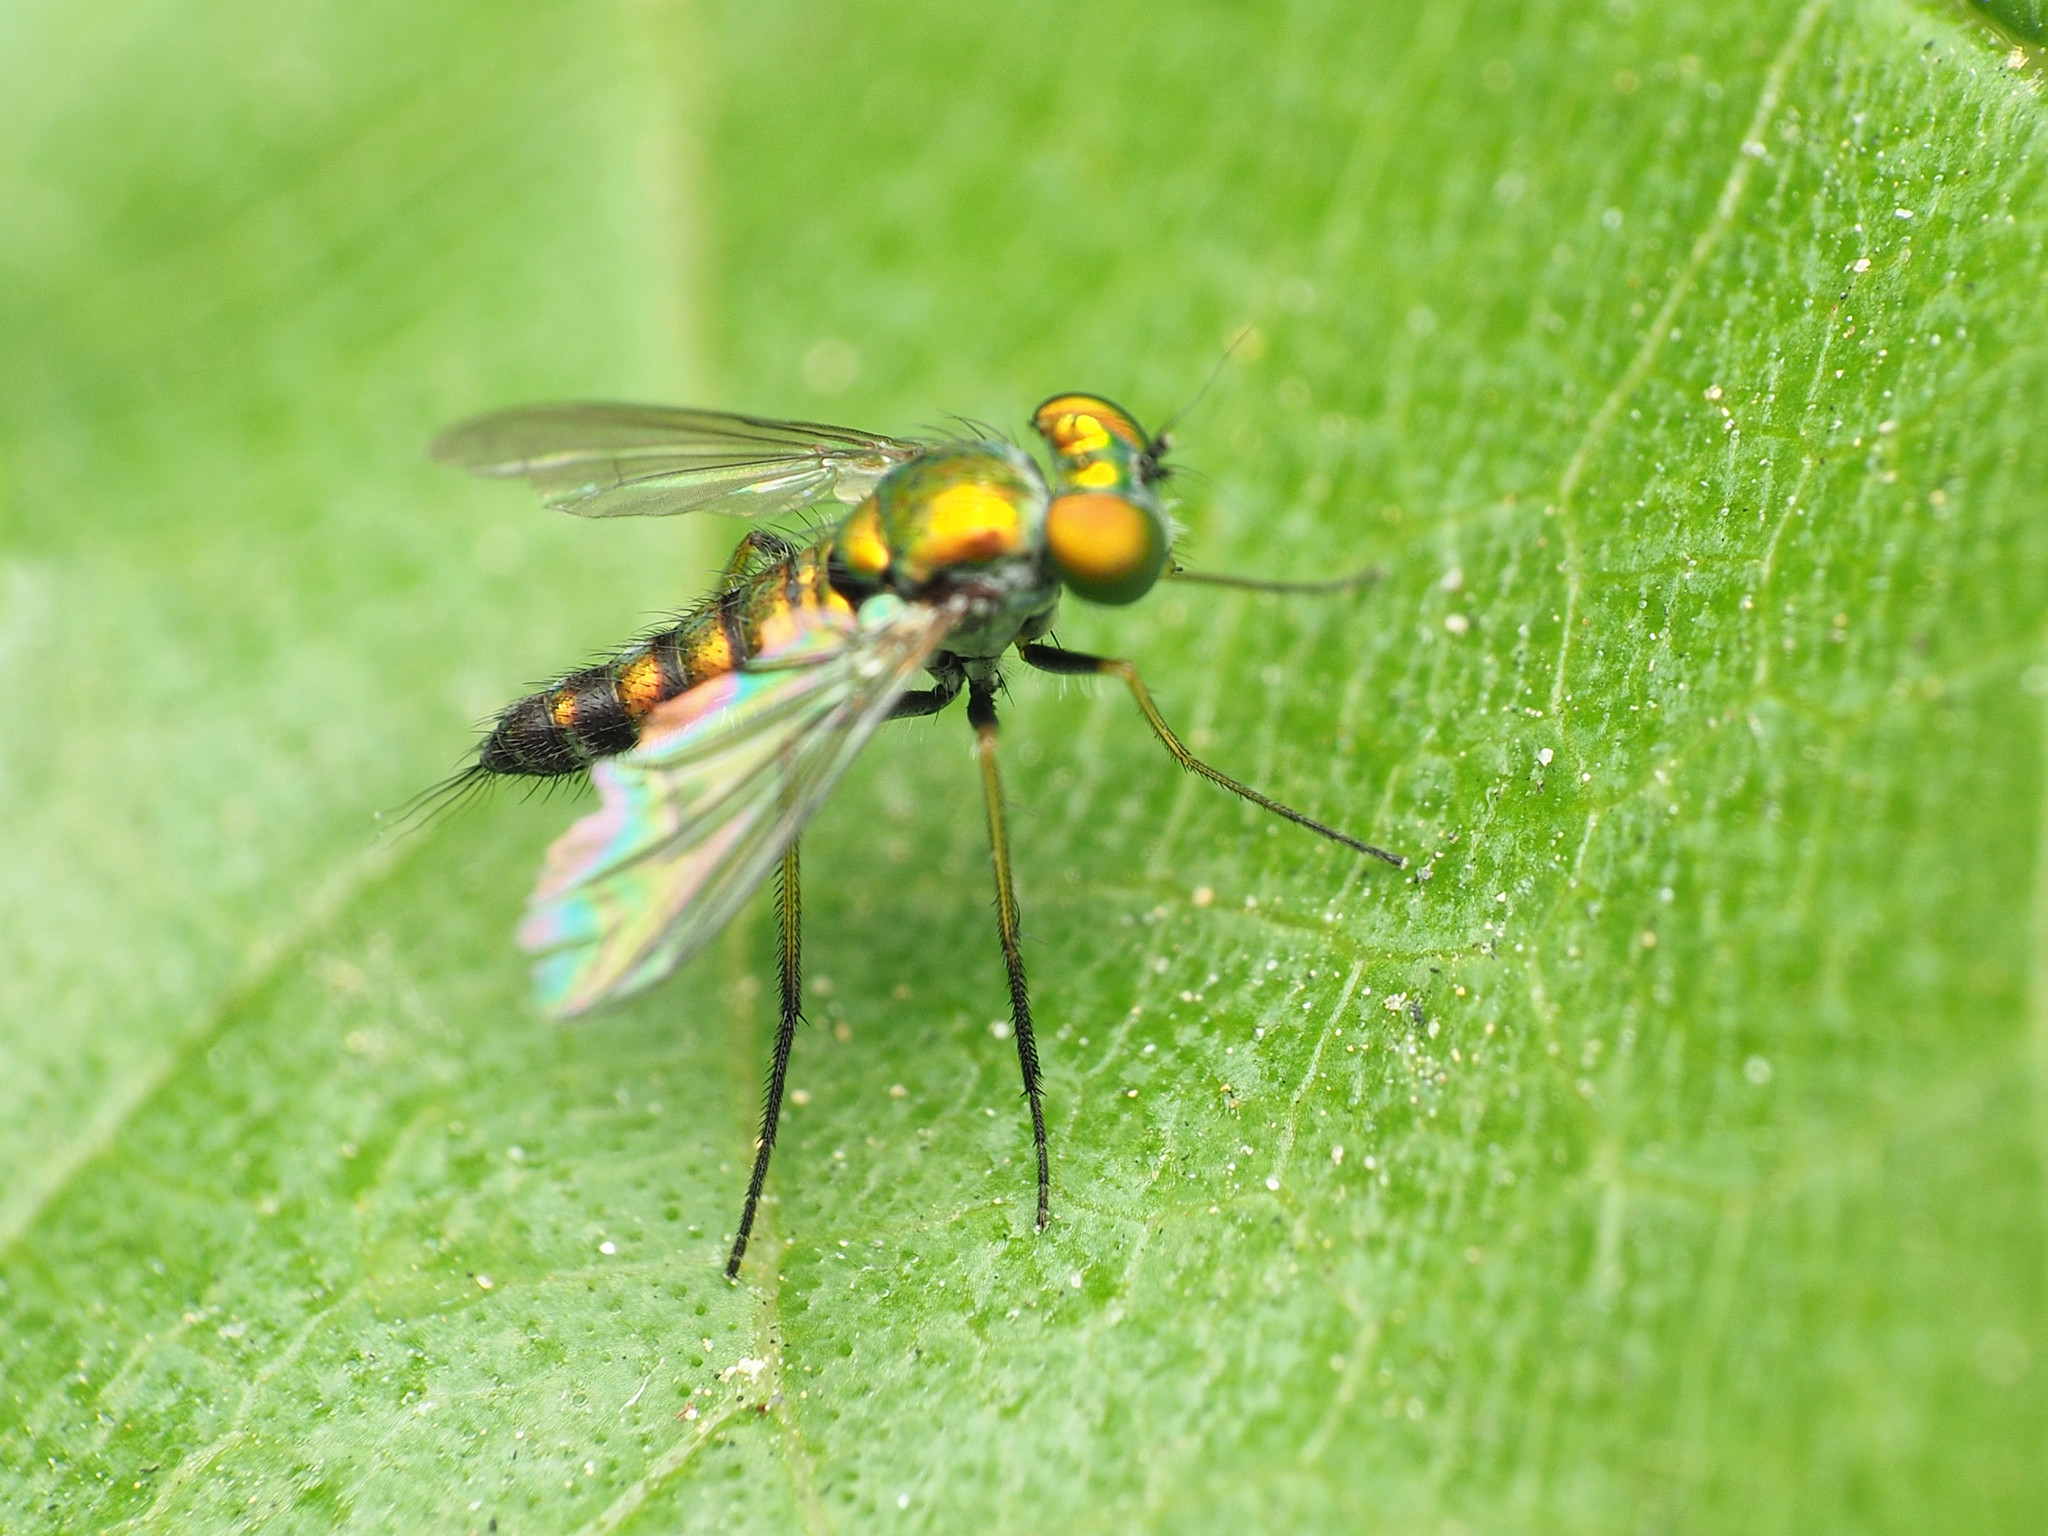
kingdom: Animalia
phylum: Arthropoda
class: Insecta
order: Diptera
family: Dolichopodidae
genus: Condylostylus
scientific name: Condylostylus caudatus
